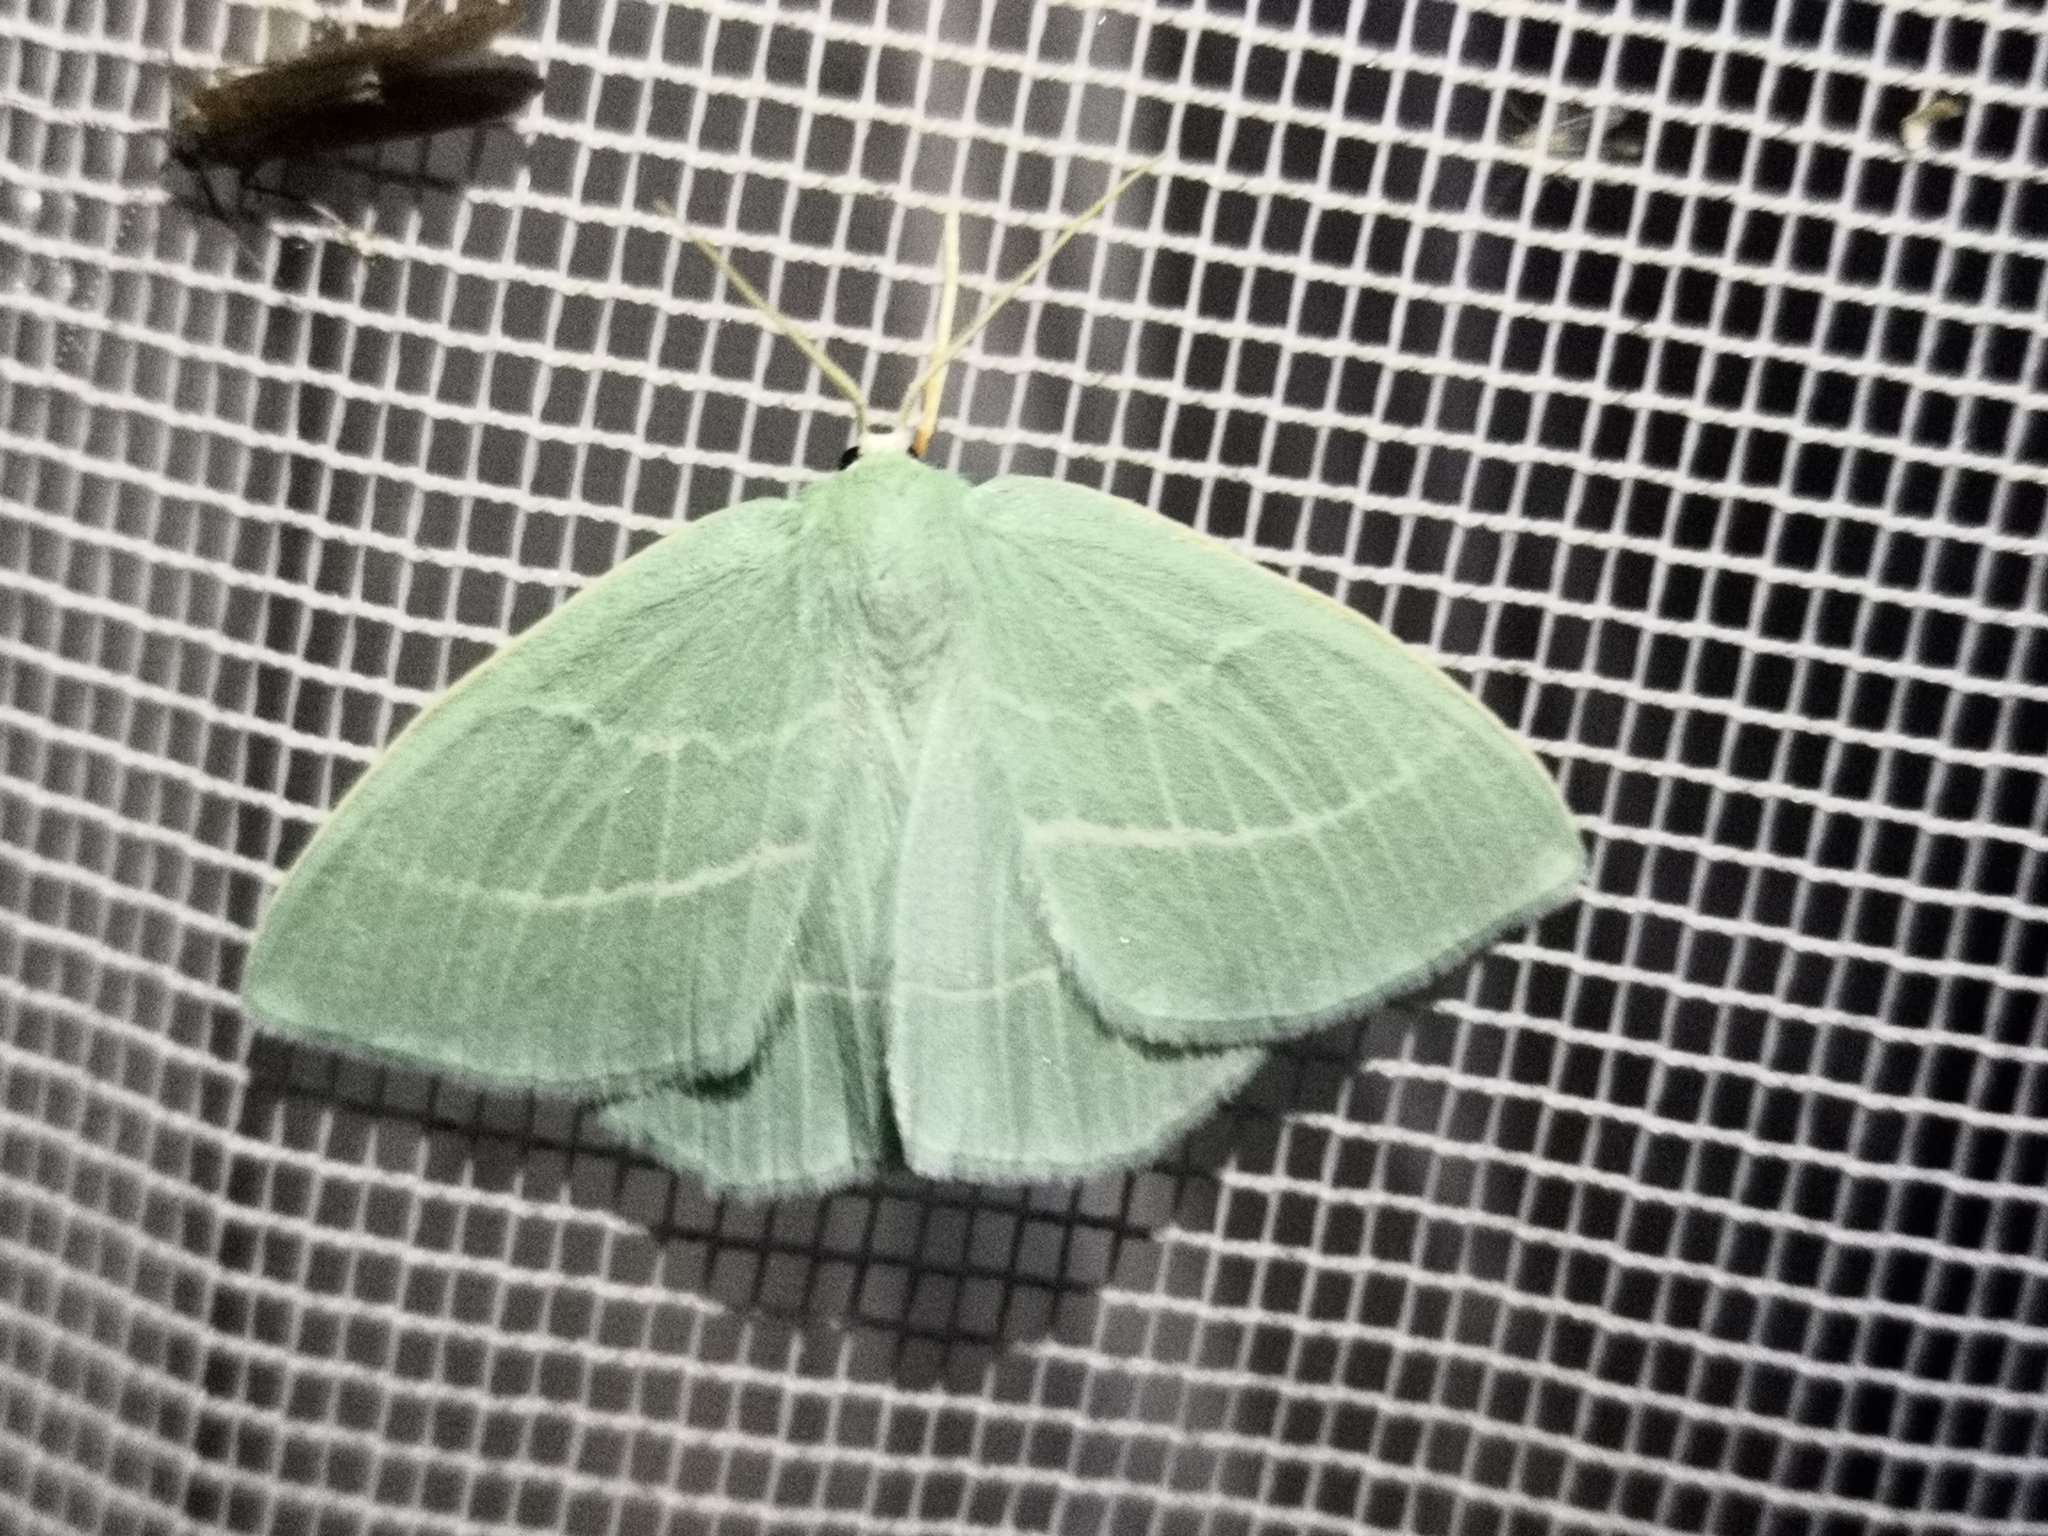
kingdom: Animalia
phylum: Arthropoda
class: Insecta
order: Lepidoptera
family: Geometridae
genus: Hemistola
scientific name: Hemistola chrysoprasaria
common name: Small emerald
